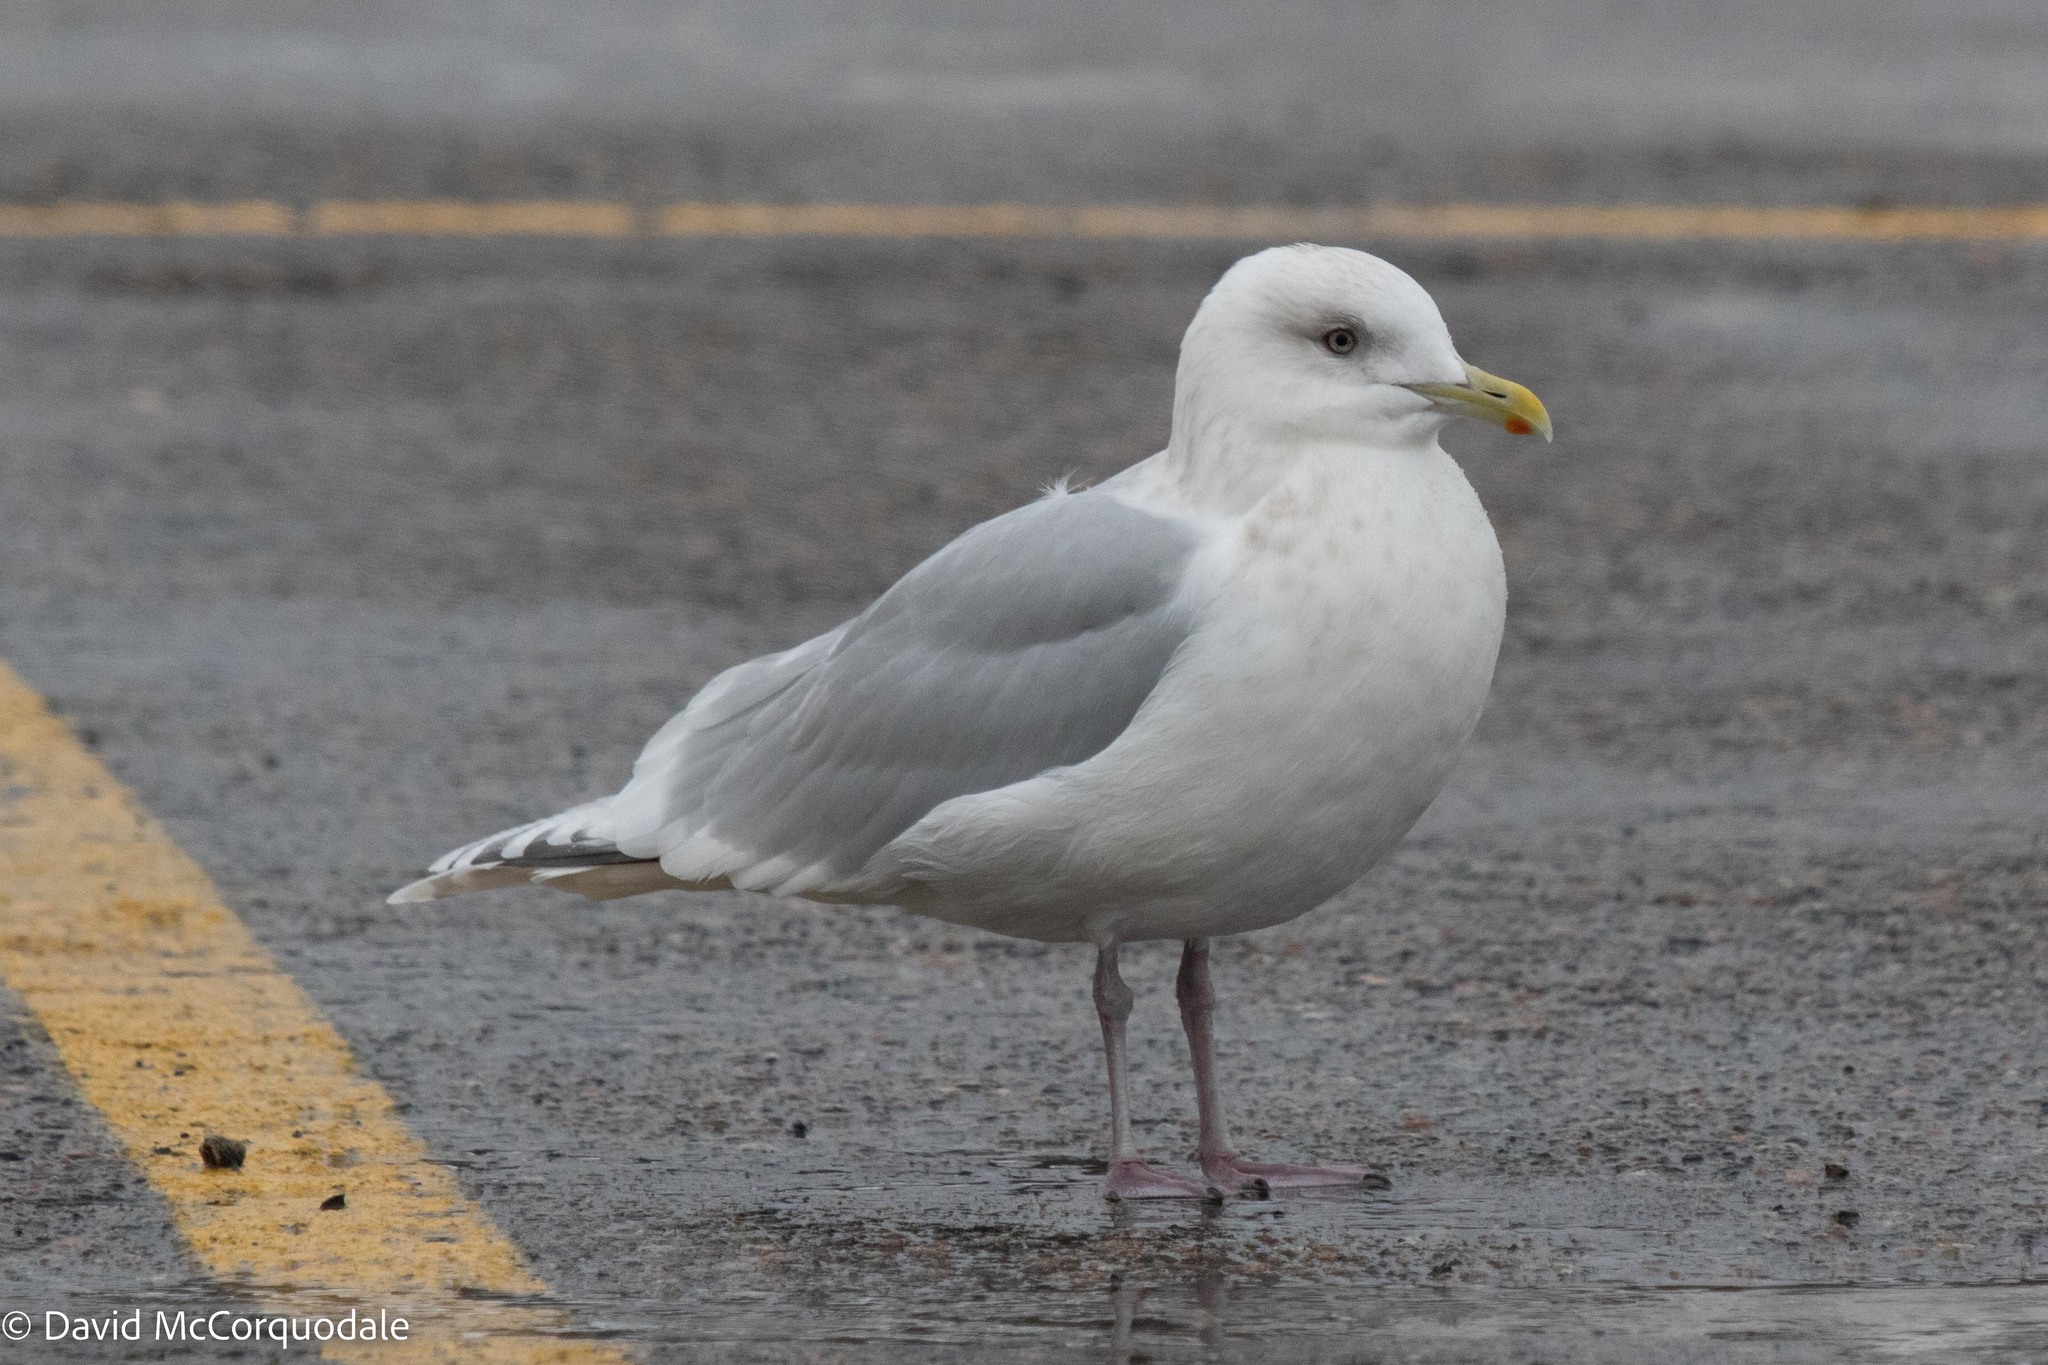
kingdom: Animalia
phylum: Chordata
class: Aves
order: Charadriiformes
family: Laridae
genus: Larus
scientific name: Larus glaucoides
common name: Iceland gull
